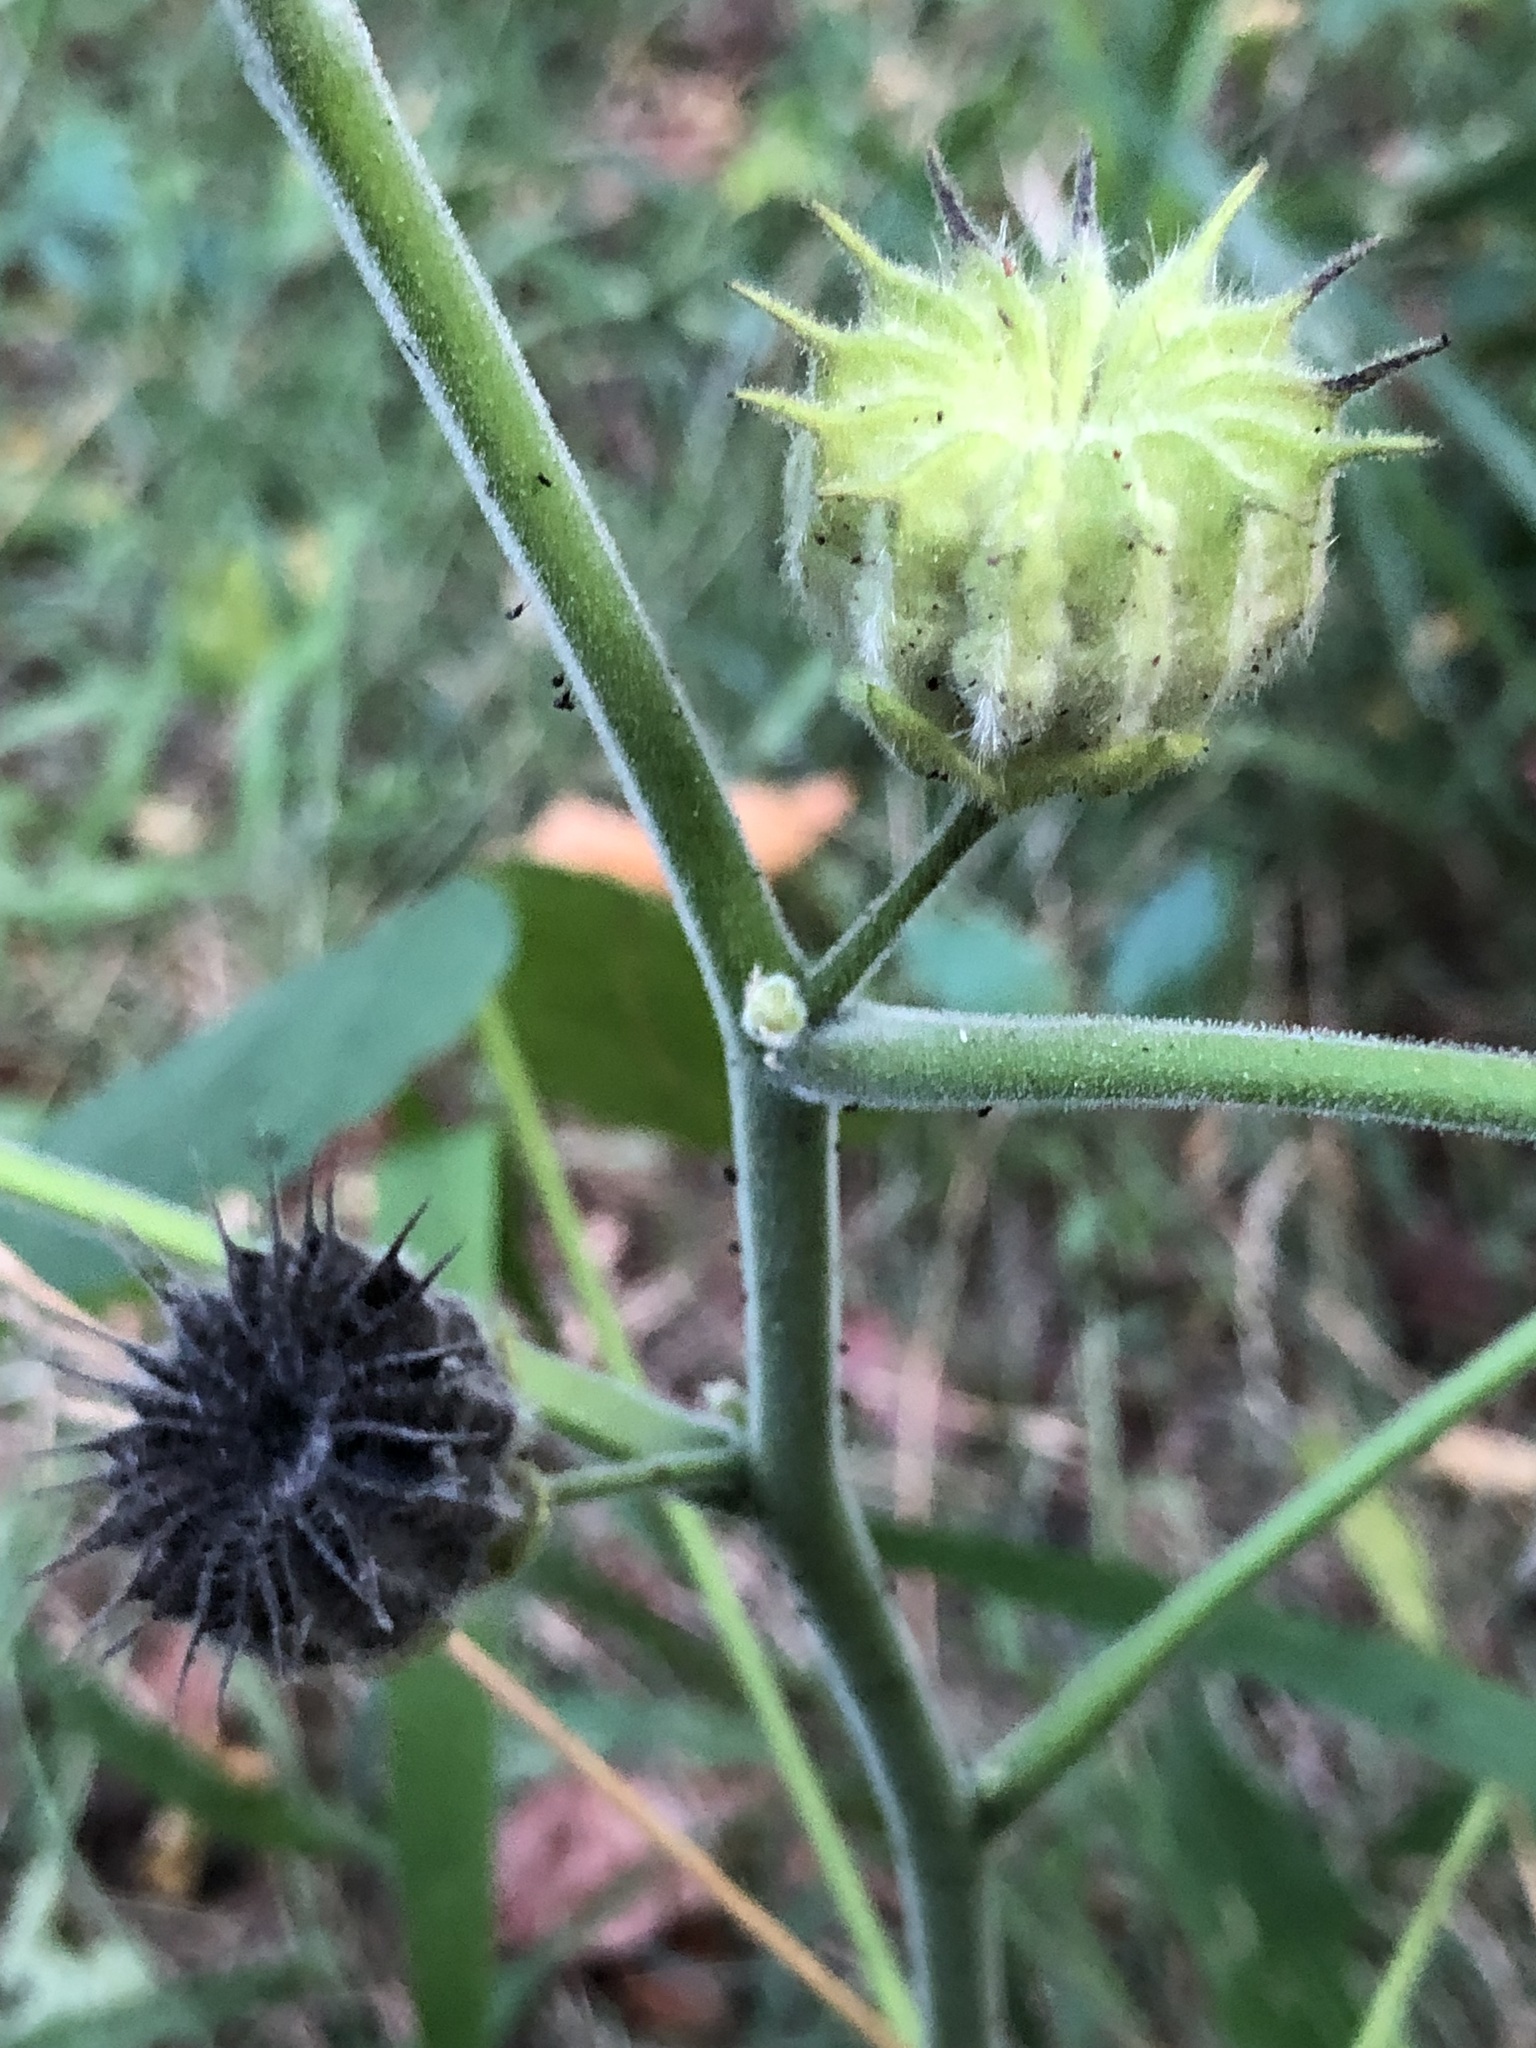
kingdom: Plantae
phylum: Tracheophyta
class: Magnoliopsida
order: Malvales
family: Malvaceae
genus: Abutilon
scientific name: Abutilon theophrasti
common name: Velvetleaf
